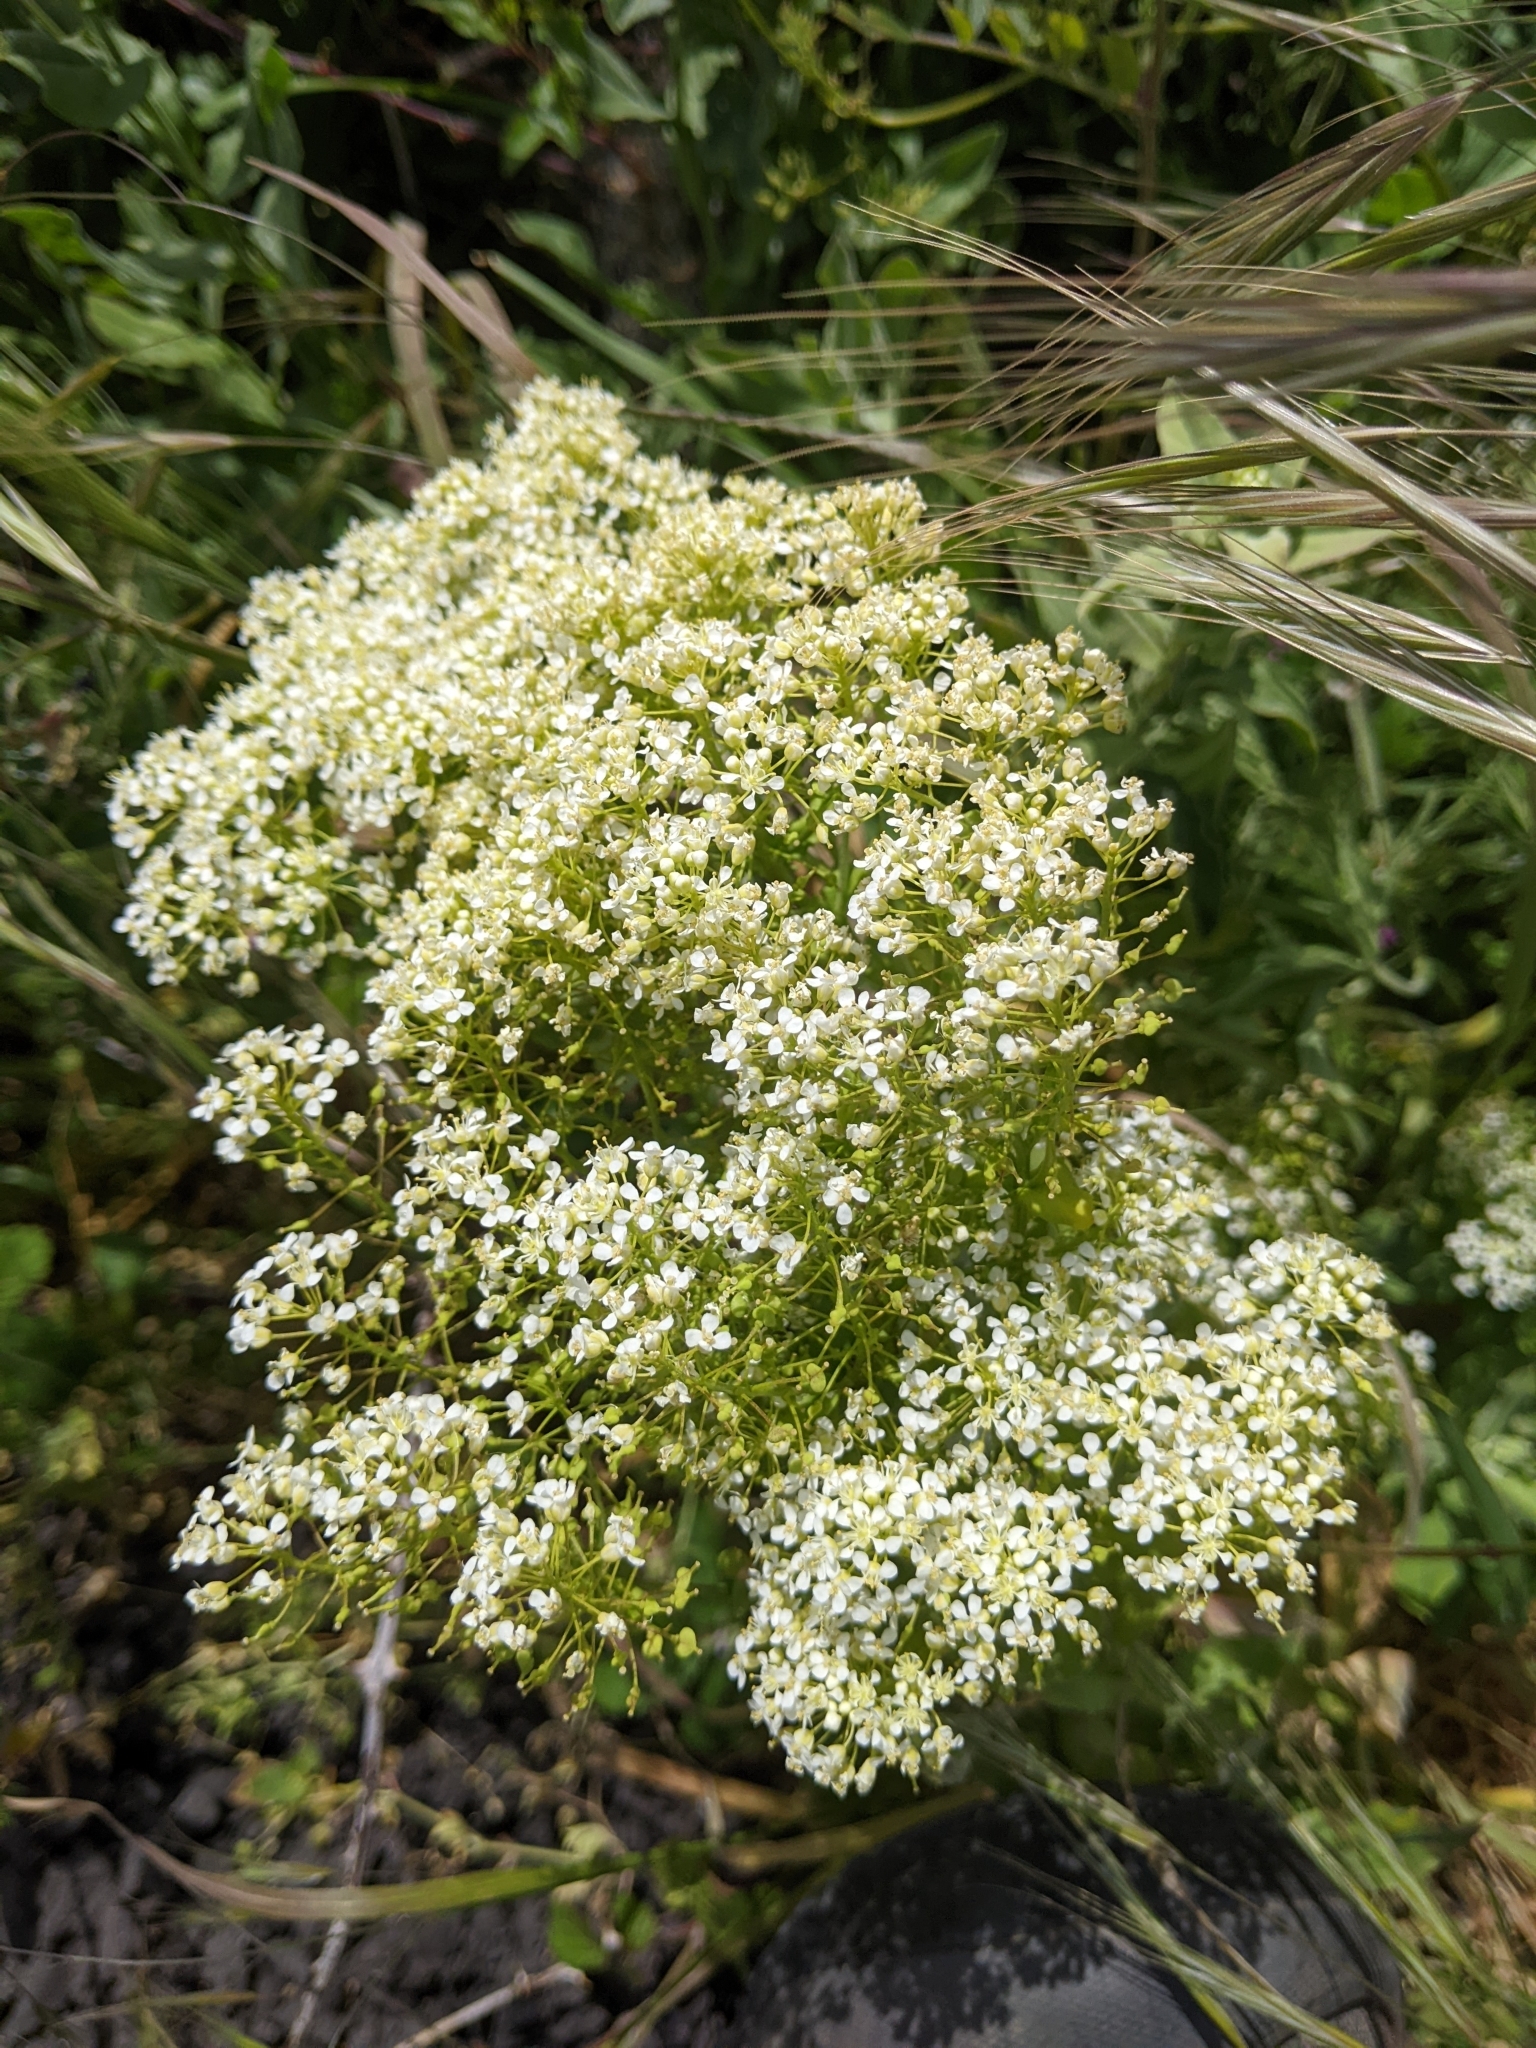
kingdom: Plantae
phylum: Tracheophyta
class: Magnoliopsida
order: Brassicales
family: Brassicaceae
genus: Lepidium
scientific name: Lepidium draba
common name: Hoary cress
